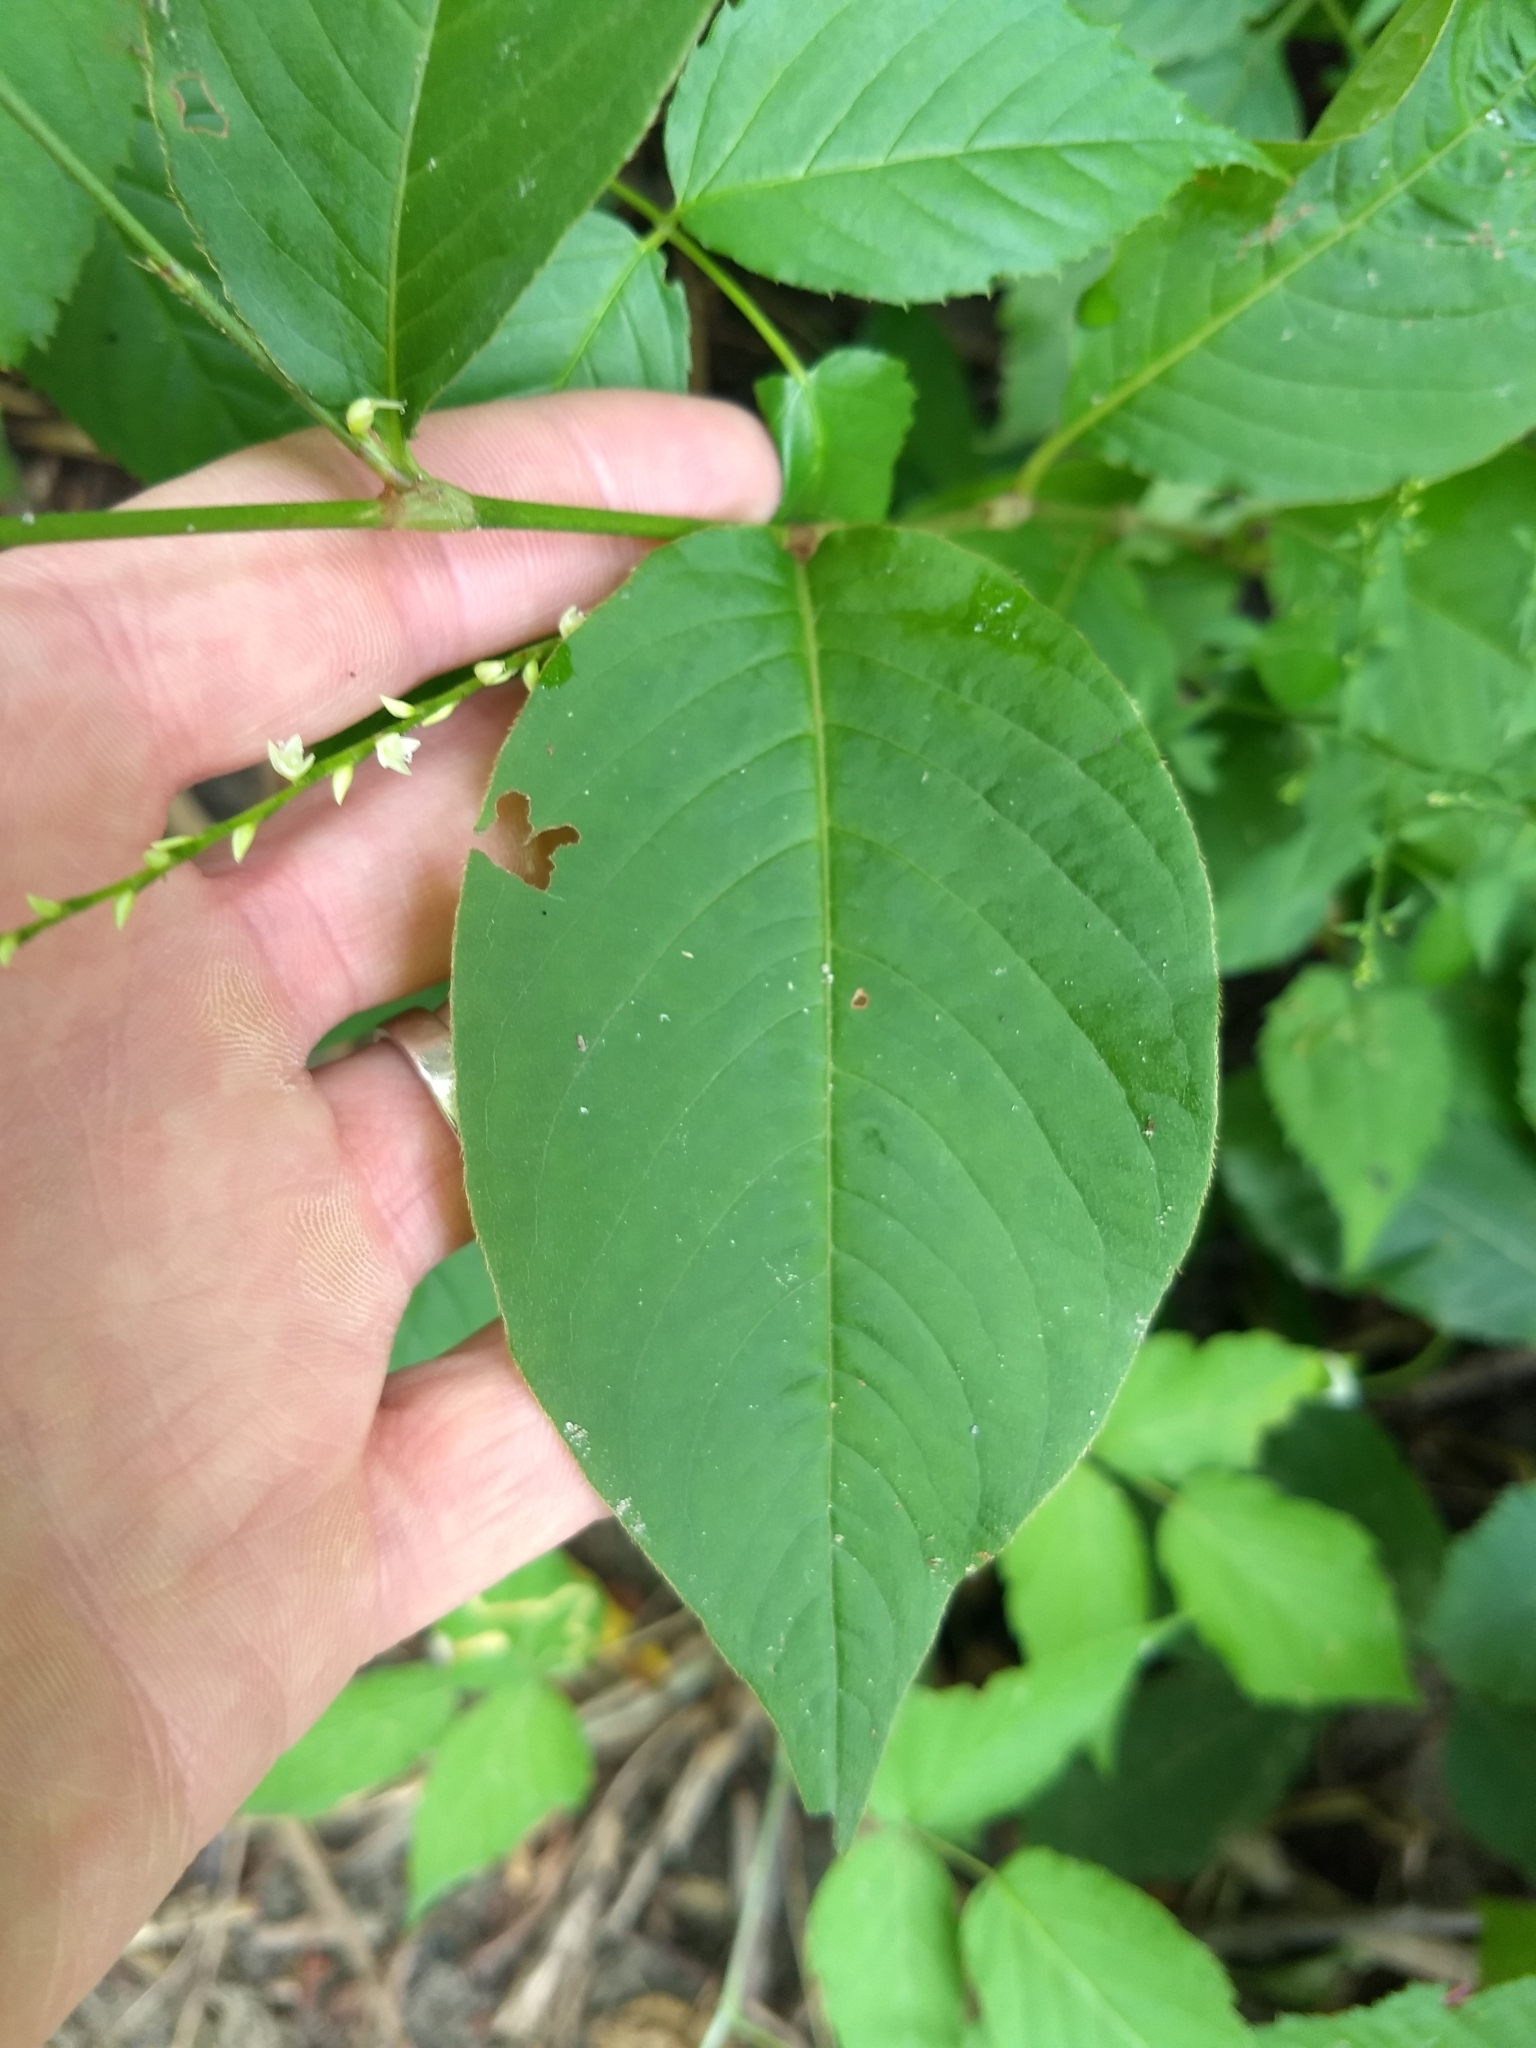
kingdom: Plantae
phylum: Tracheophyta
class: Magnoliopsida
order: Caryophyllales
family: Polygonaceae
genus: Persicaria
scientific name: Persicaria virginiana
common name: Jumpseed
